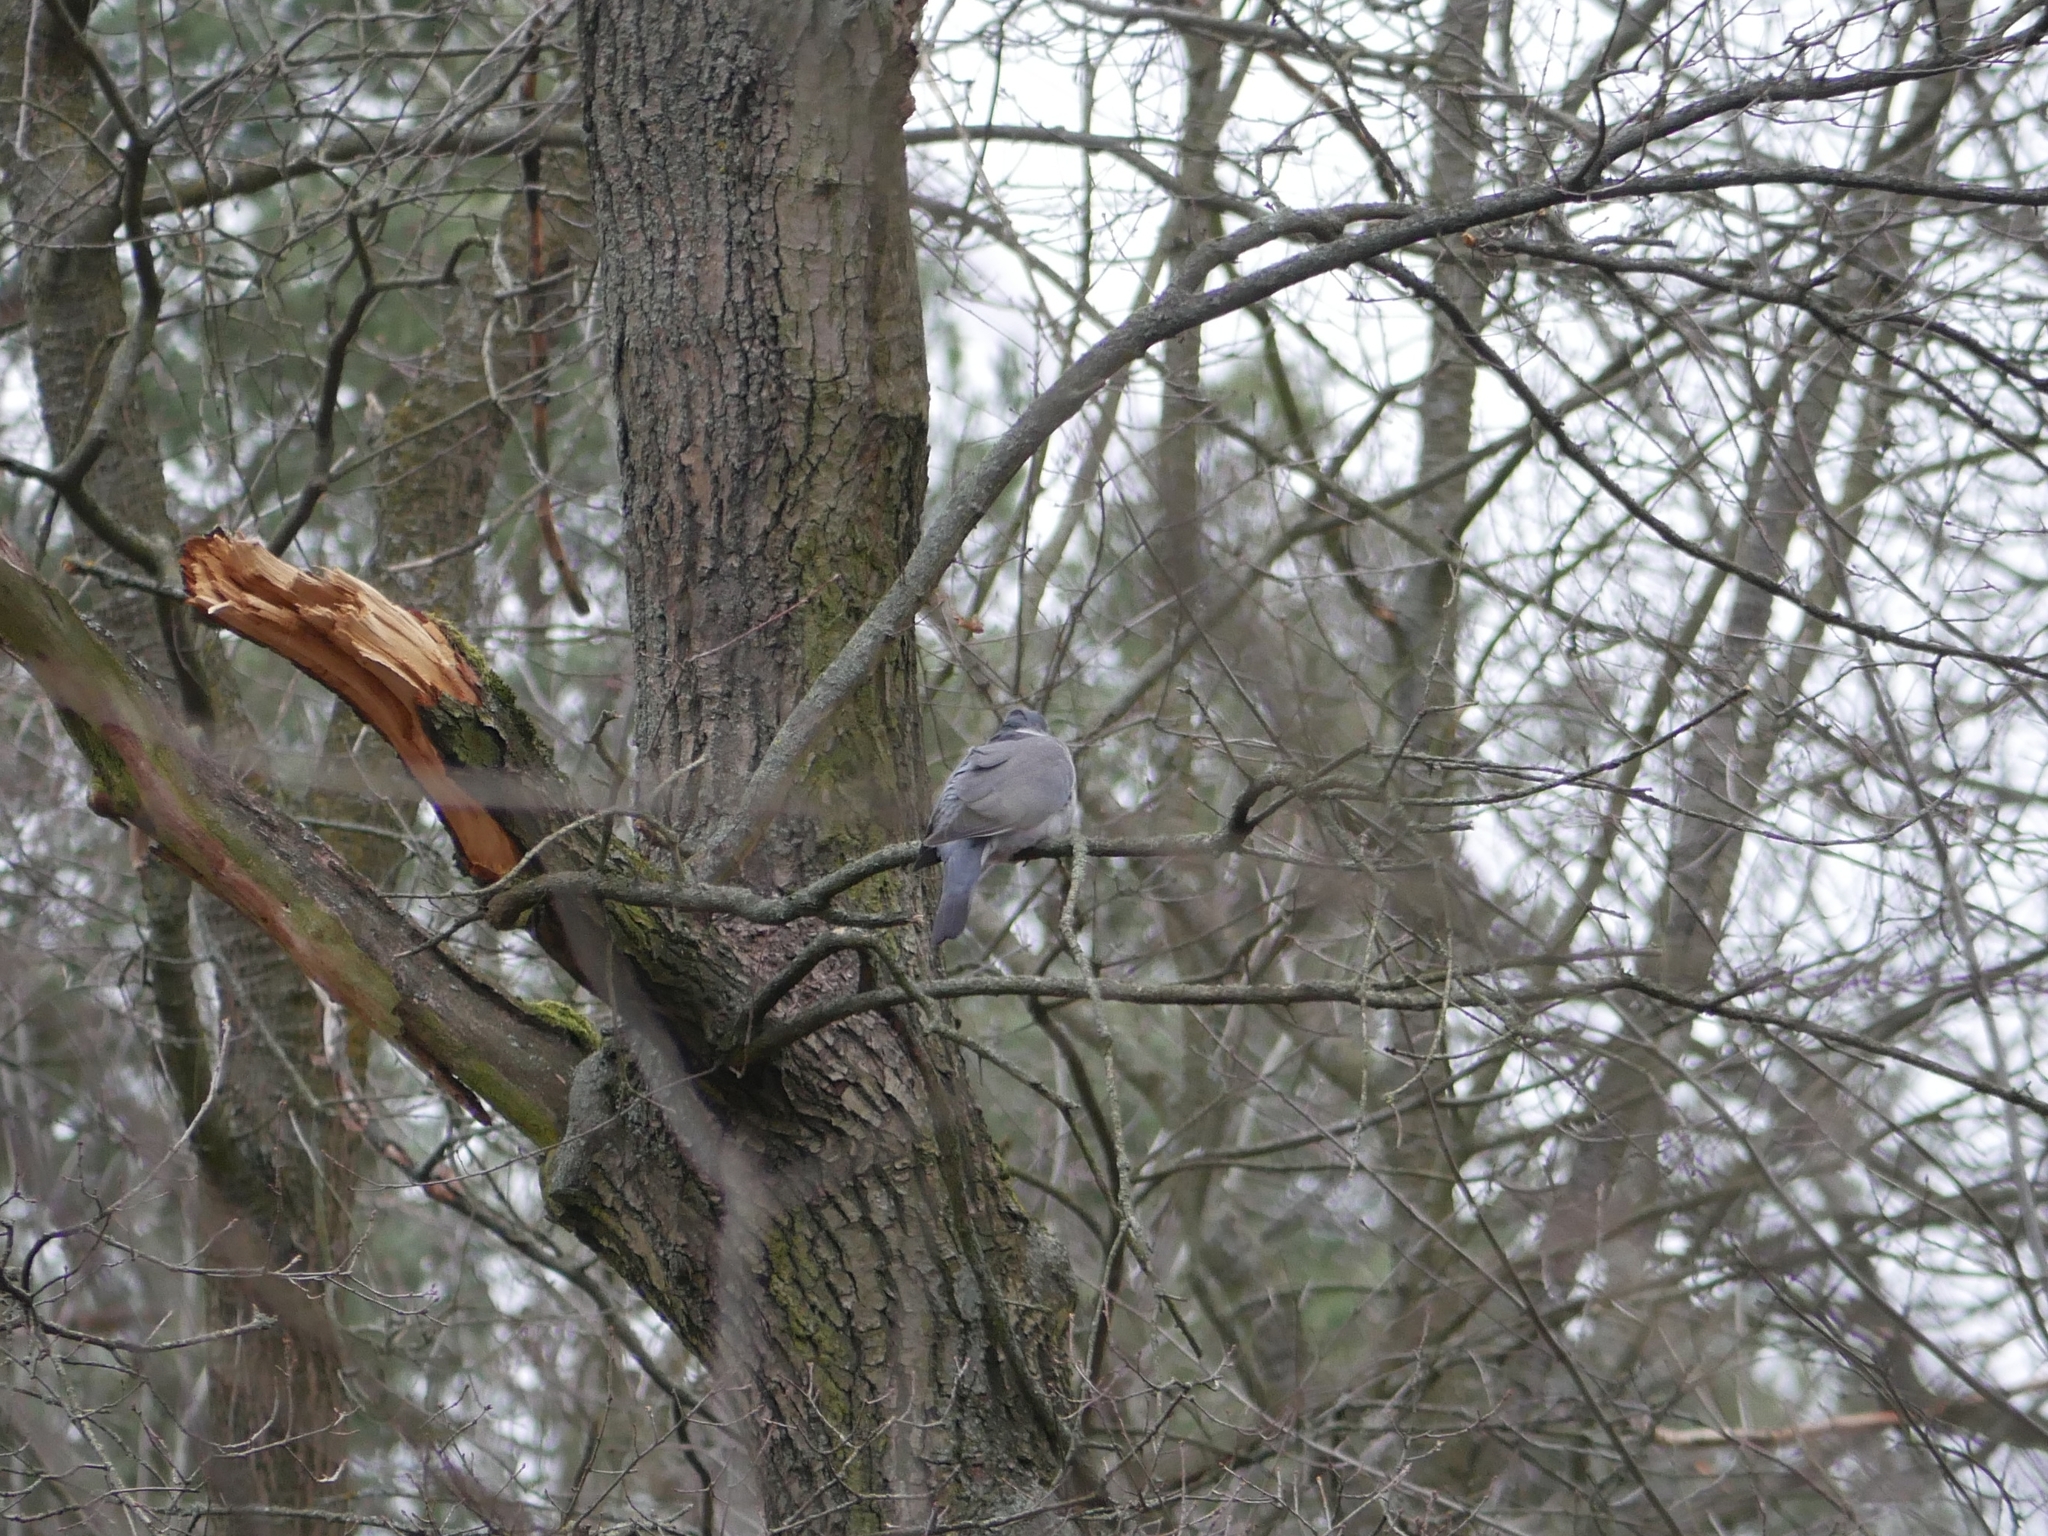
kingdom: Animalia
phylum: Chordata
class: Aves
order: Columbiformes
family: Columbidae
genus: Columba
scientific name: Columba palumbus
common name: Common wood pigeon
